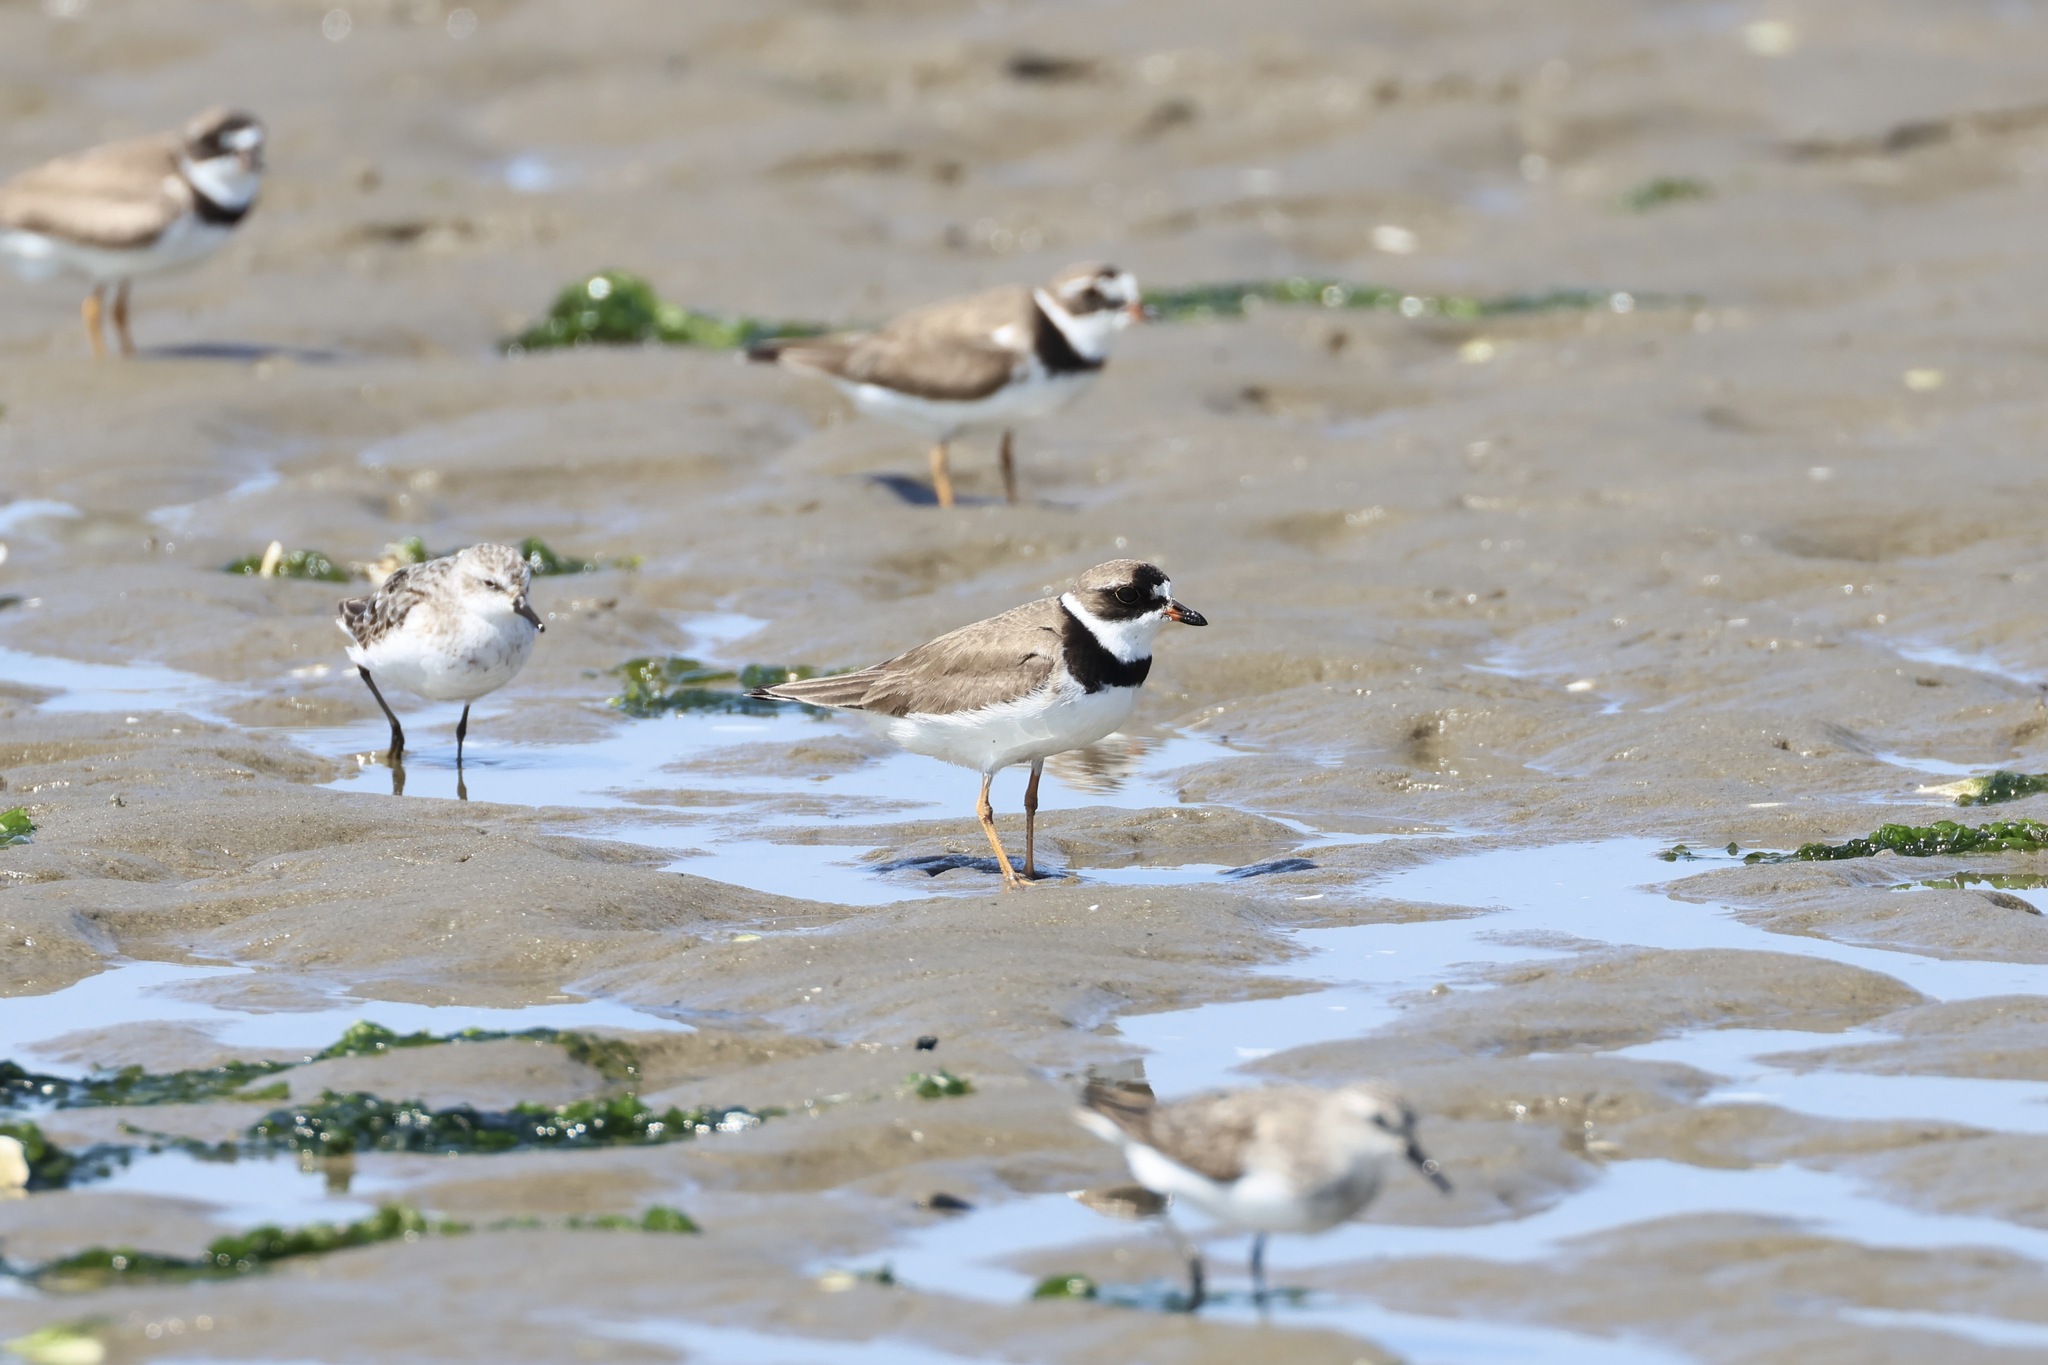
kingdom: Animalia
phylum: Chordata
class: Aves
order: Charadriiformes
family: Charadriidae
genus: Charadrius
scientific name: Charadrius semipalmatus
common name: Semipalmated plover
